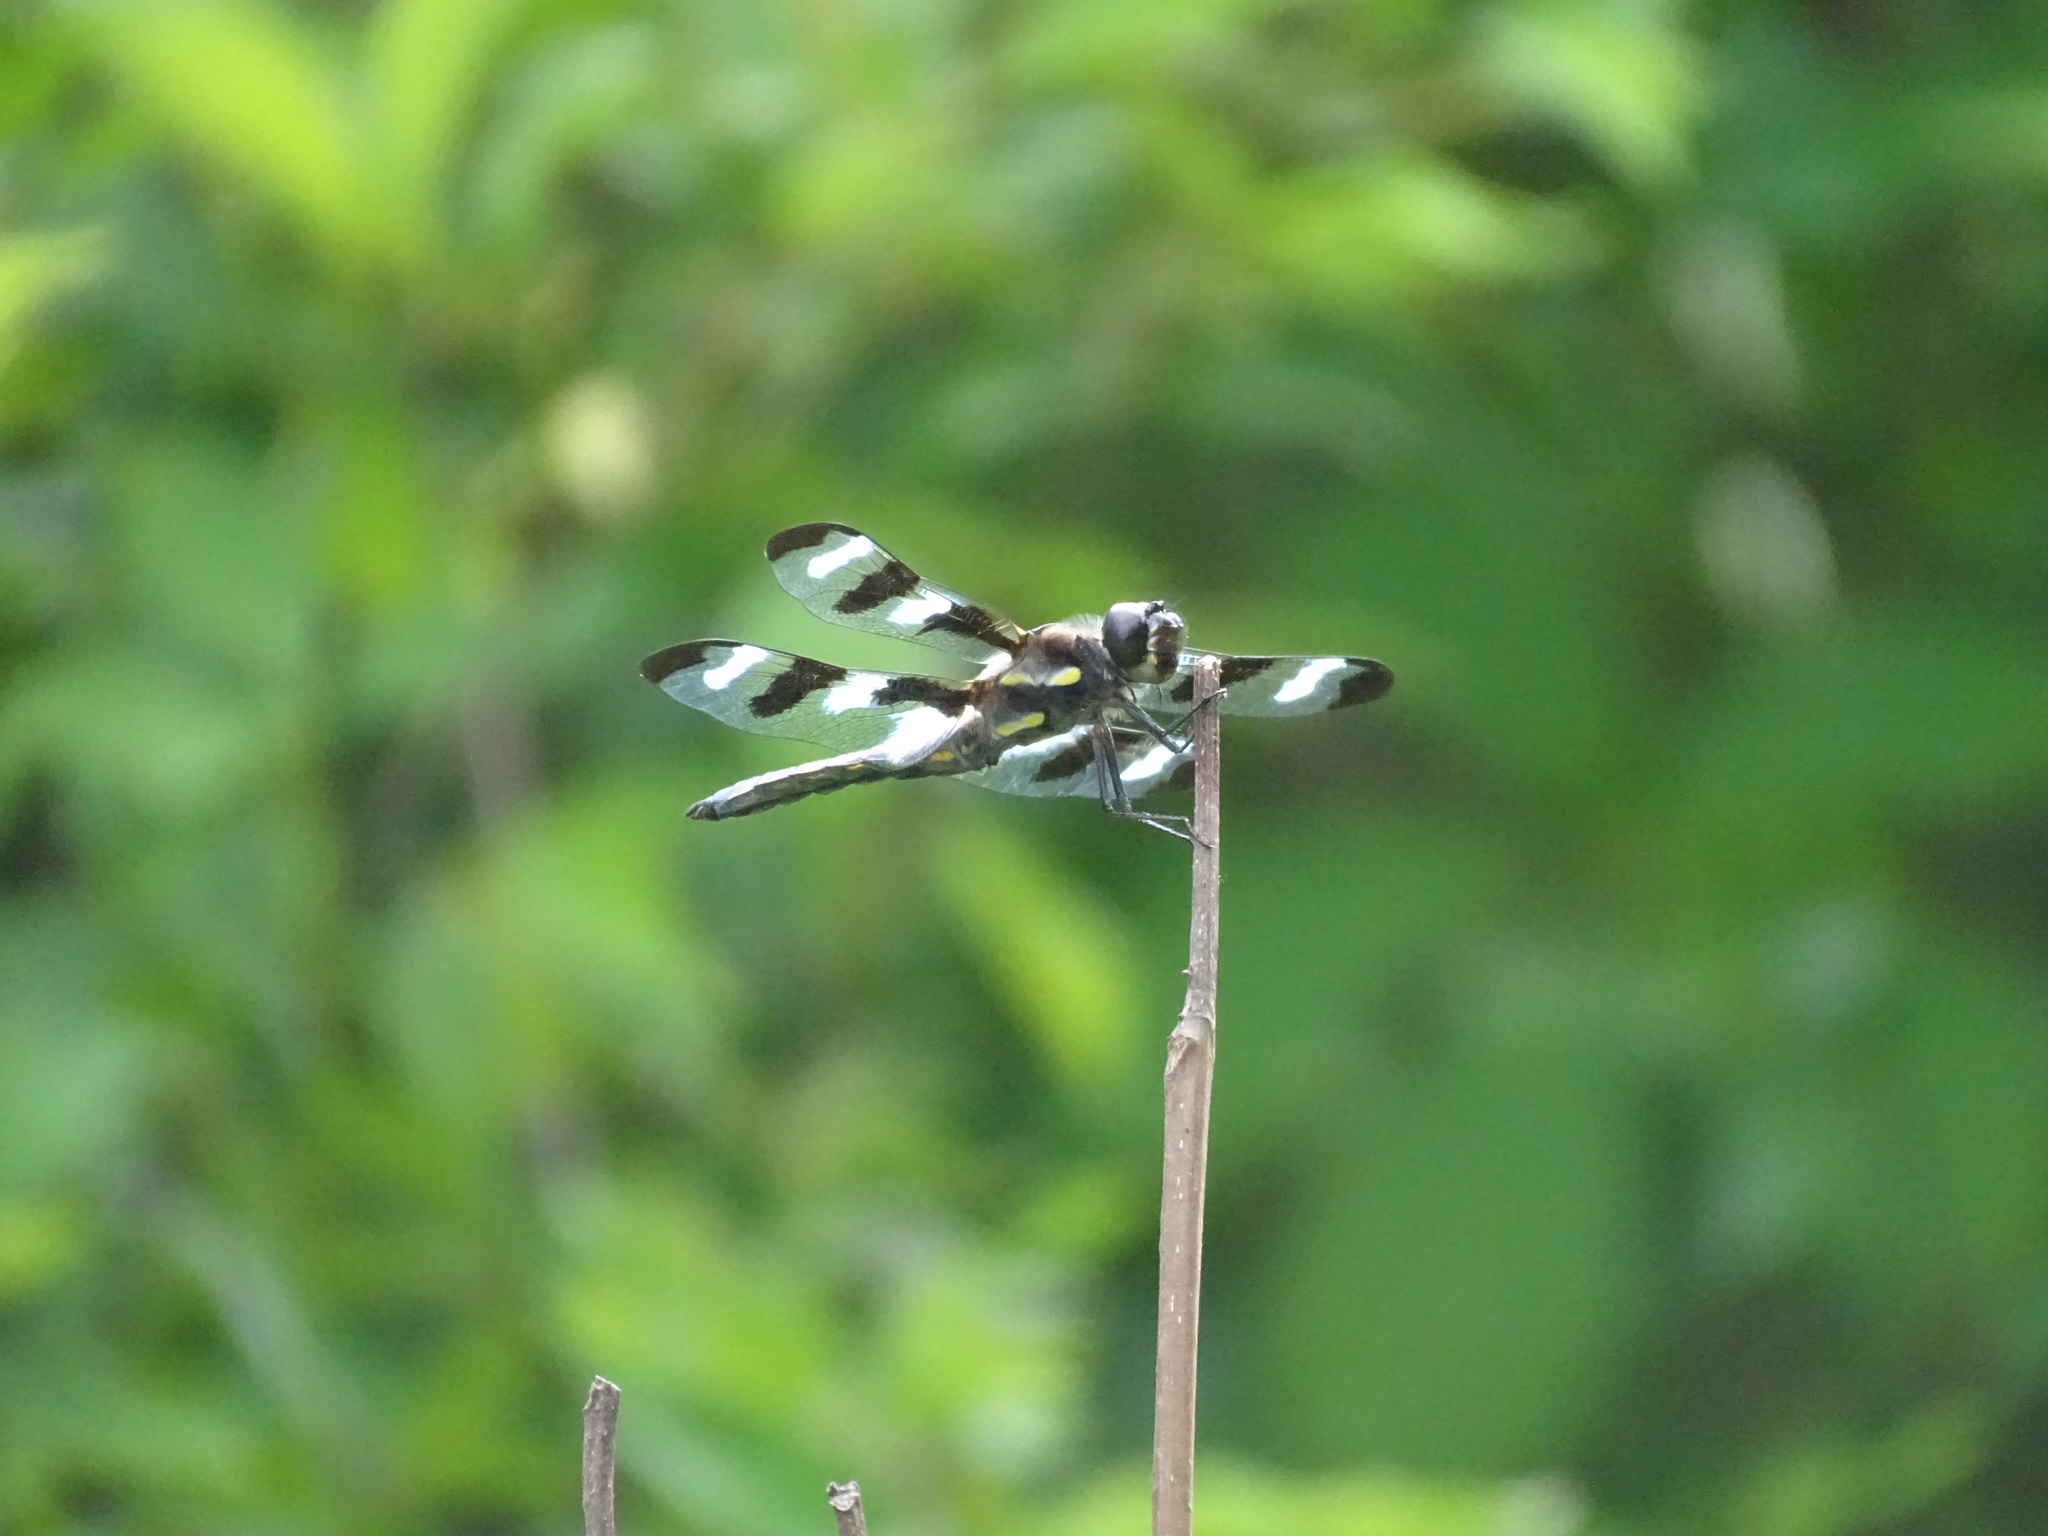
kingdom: Animalia
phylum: Arthropoda
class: Insecta
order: Odonata
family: Libellulidae
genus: Libellula
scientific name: Libellula pulchella
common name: Twelve-spotted skimmer
